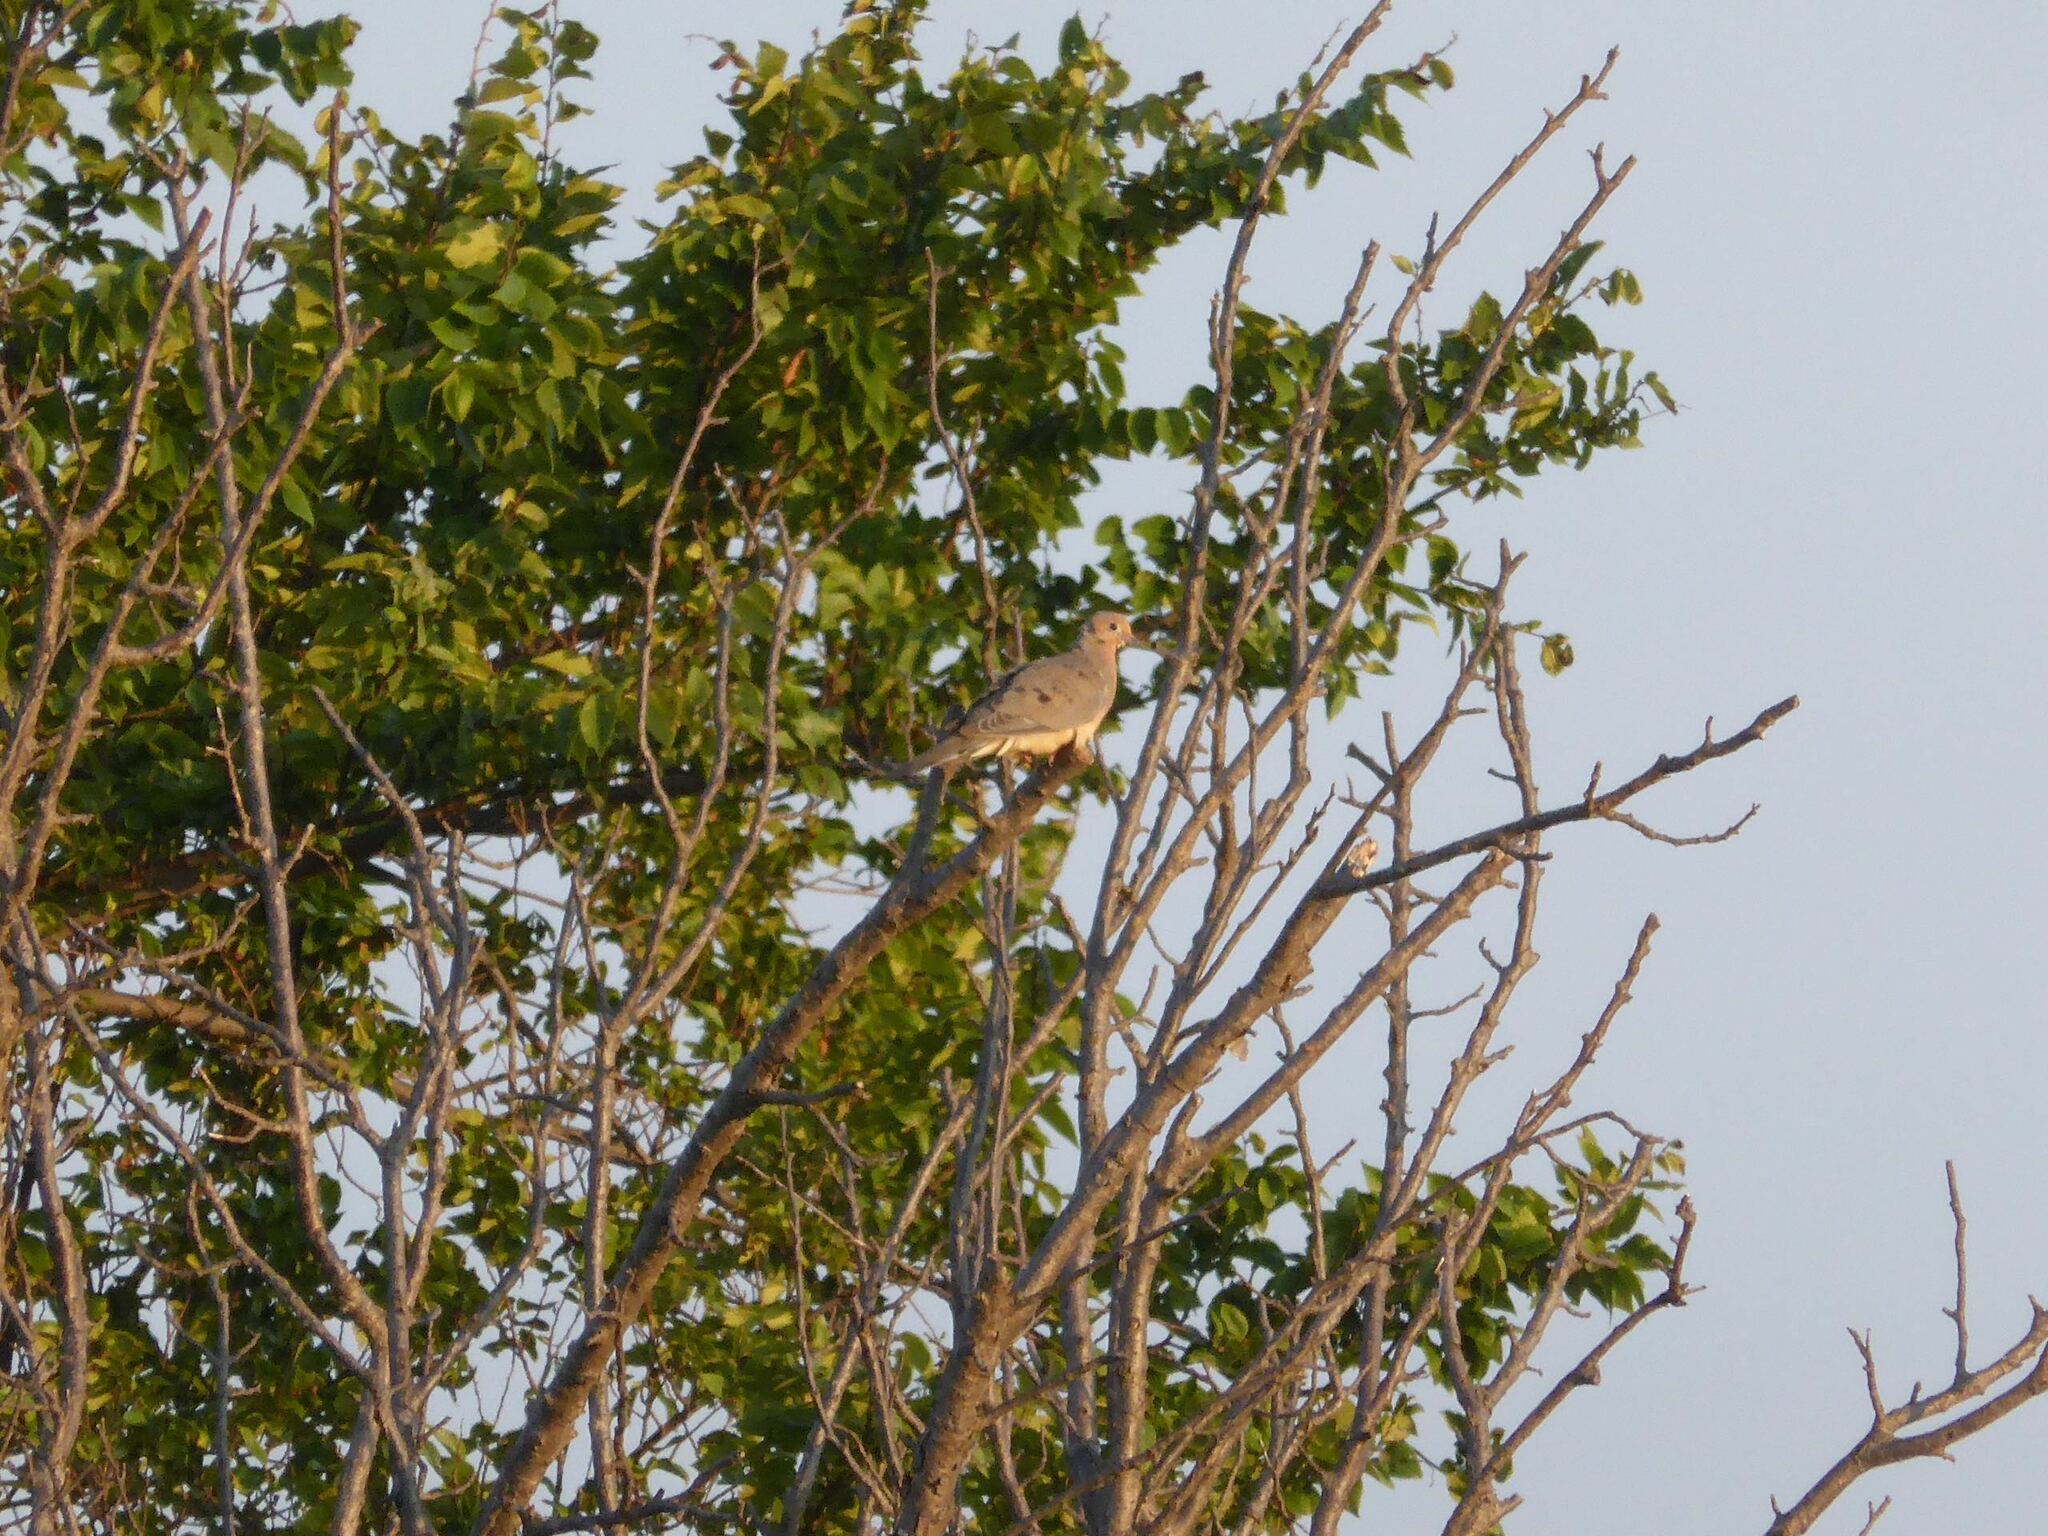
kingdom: Animalia
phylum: Chordata
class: Aves
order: Columbiformes
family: Columbidae
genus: Zenaida
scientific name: Zenaida macroura
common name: Mourning dove
